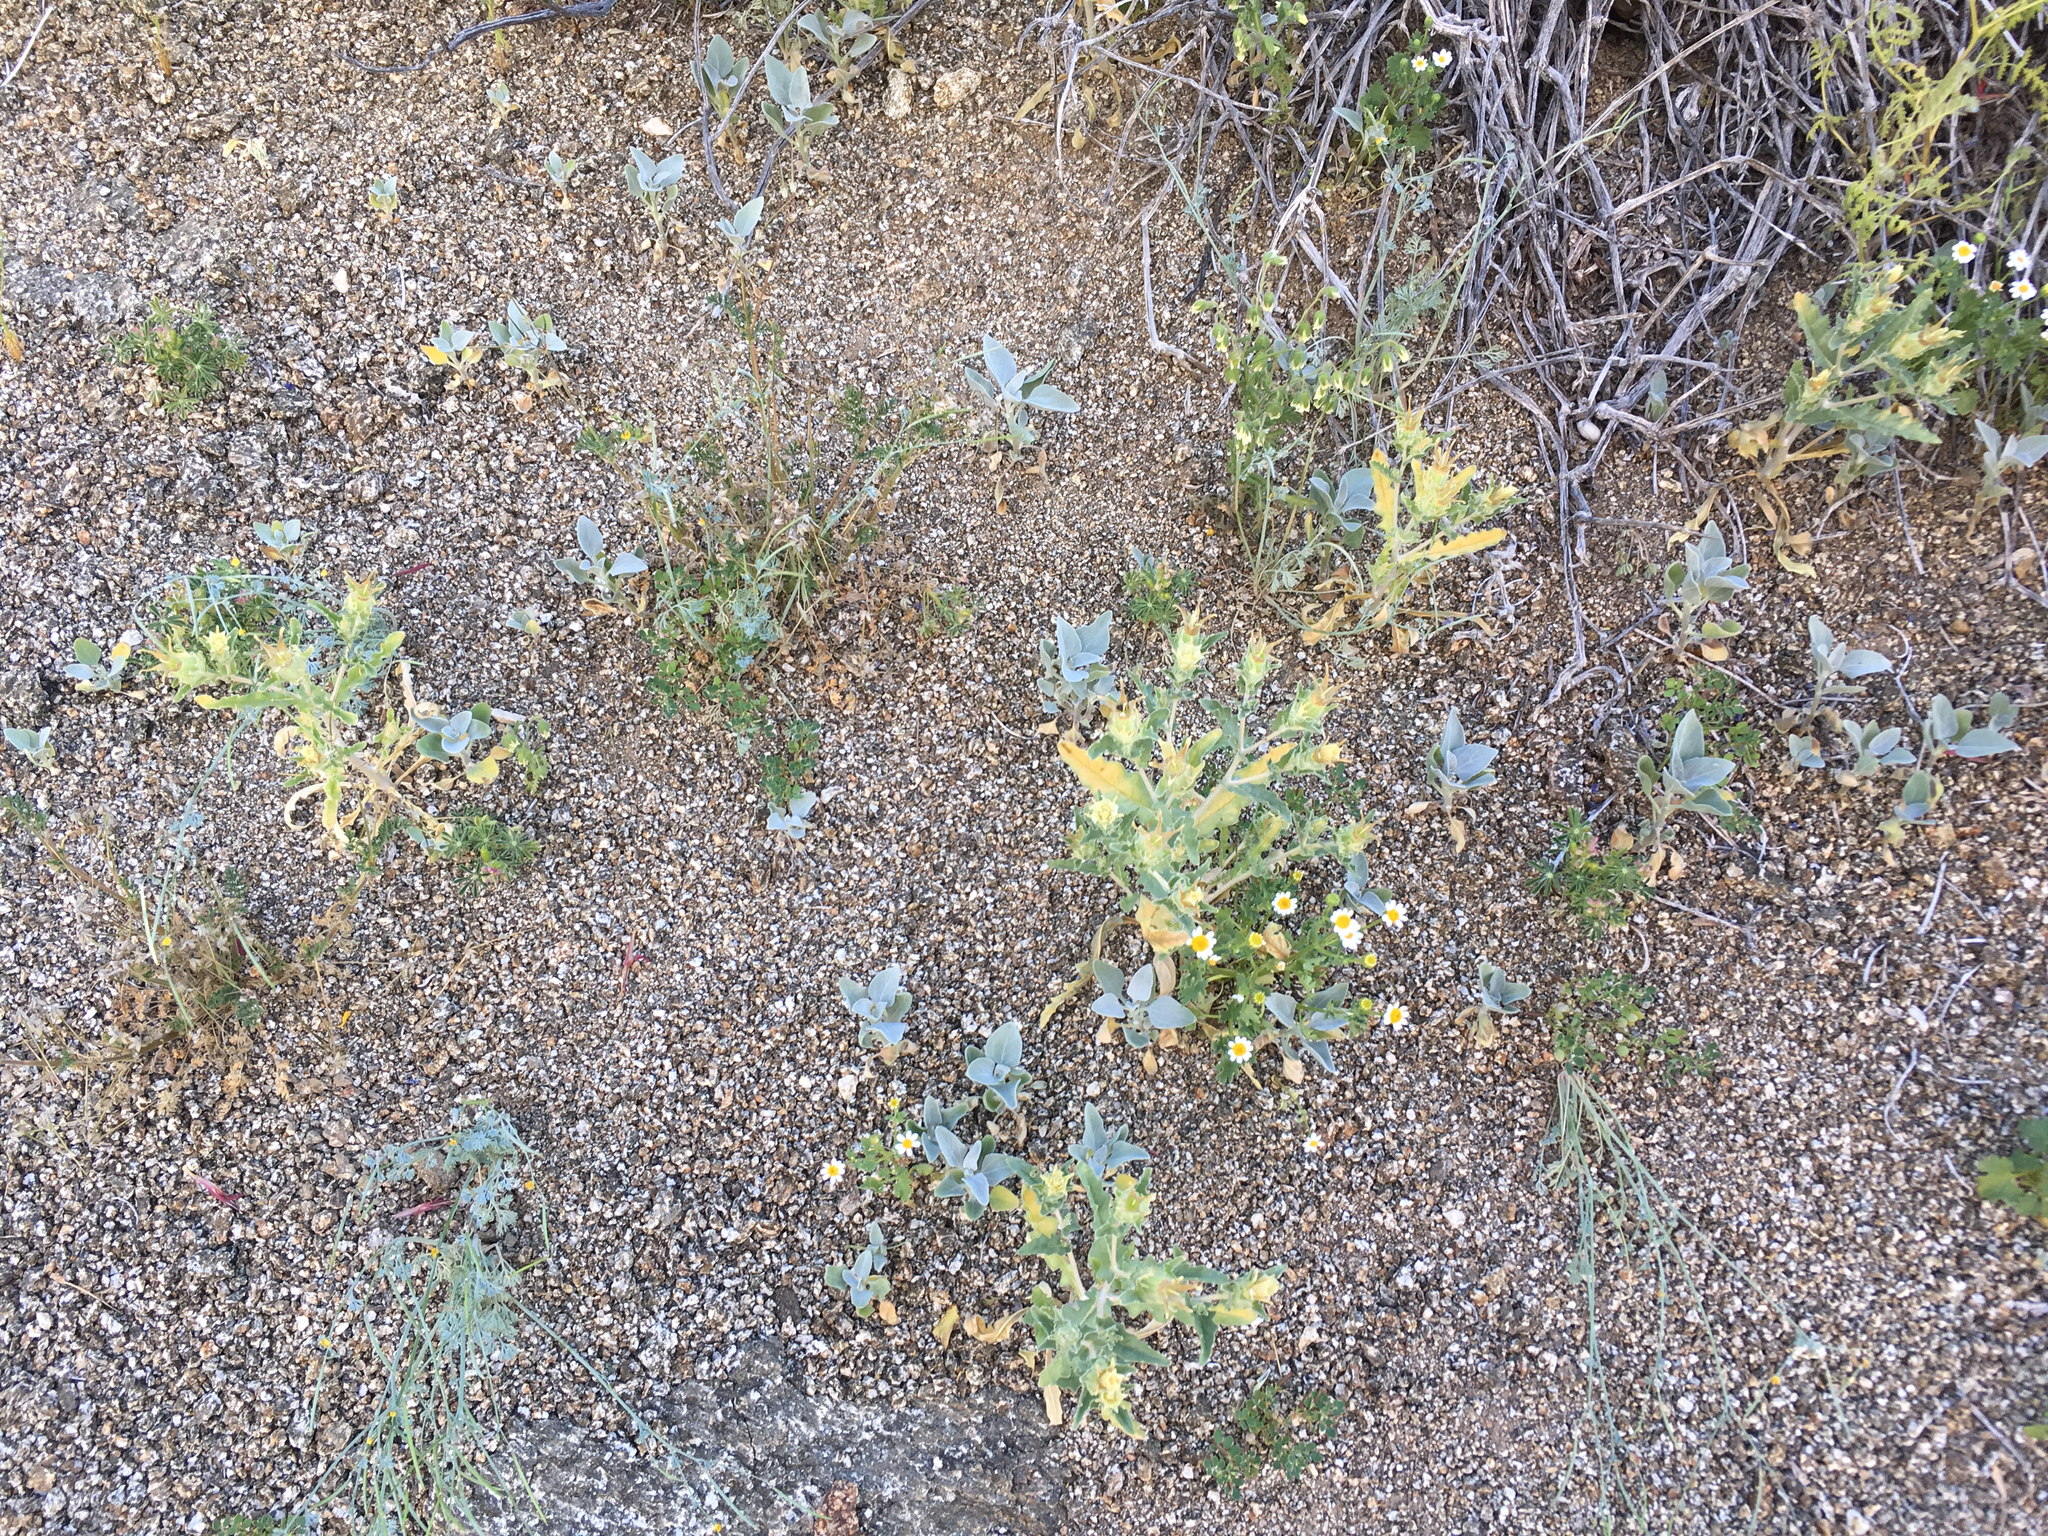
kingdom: Plantae
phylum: Tracheophyta
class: Magnoliopsida
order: Cornales
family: Loasaceae
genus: Mentzelia
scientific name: Mentzelia involucrata
